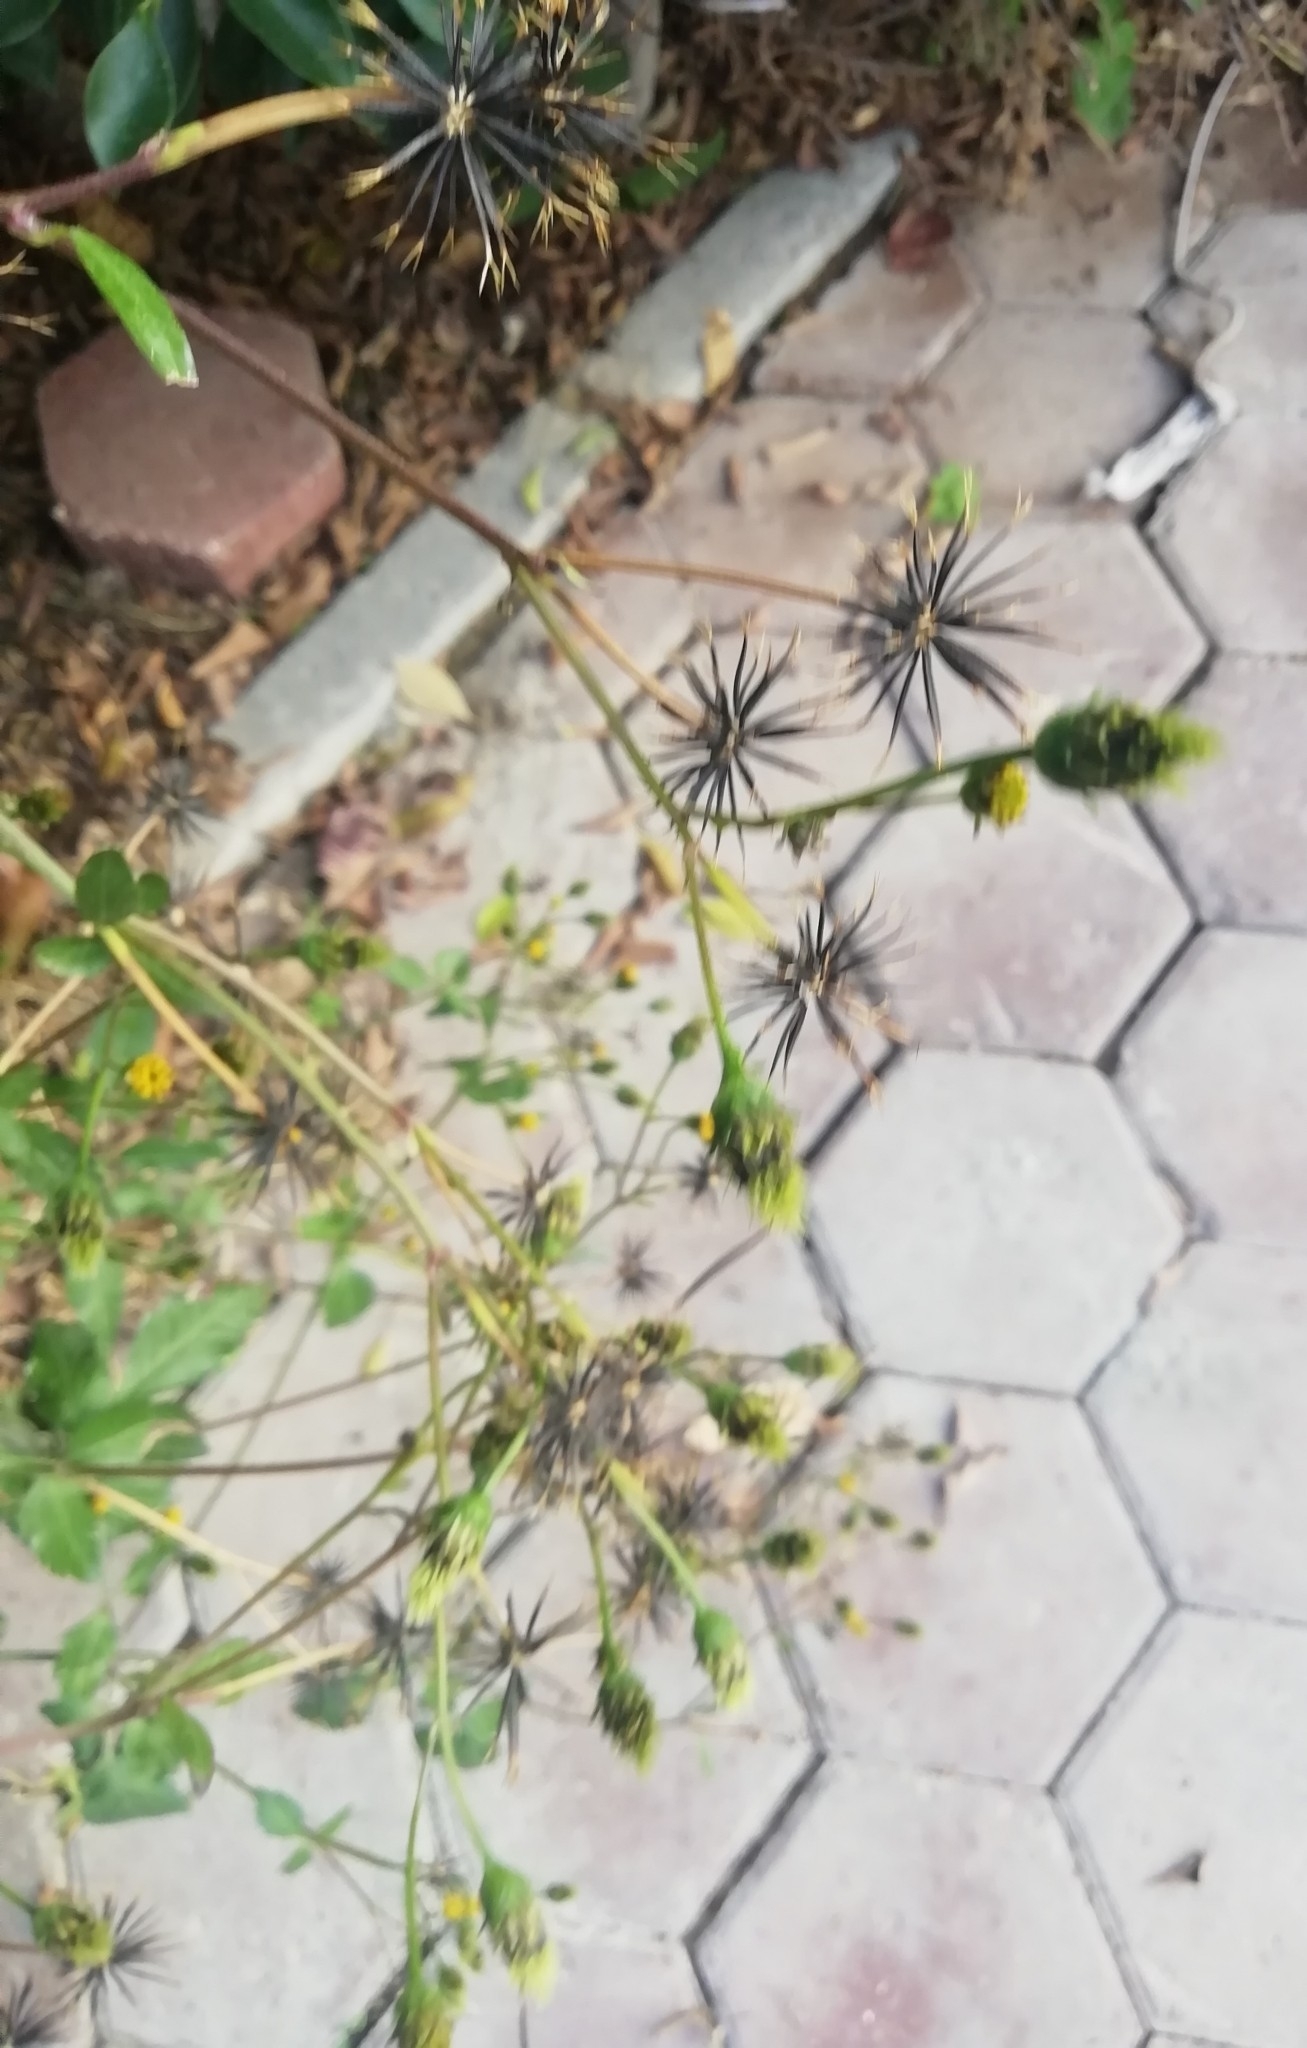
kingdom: Plantae
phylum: Tracheophyta
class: Magnoliopsida
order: Asterales
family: Asteraceae
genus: Bidens
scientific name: Bidens pilosa
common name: Black-jack
